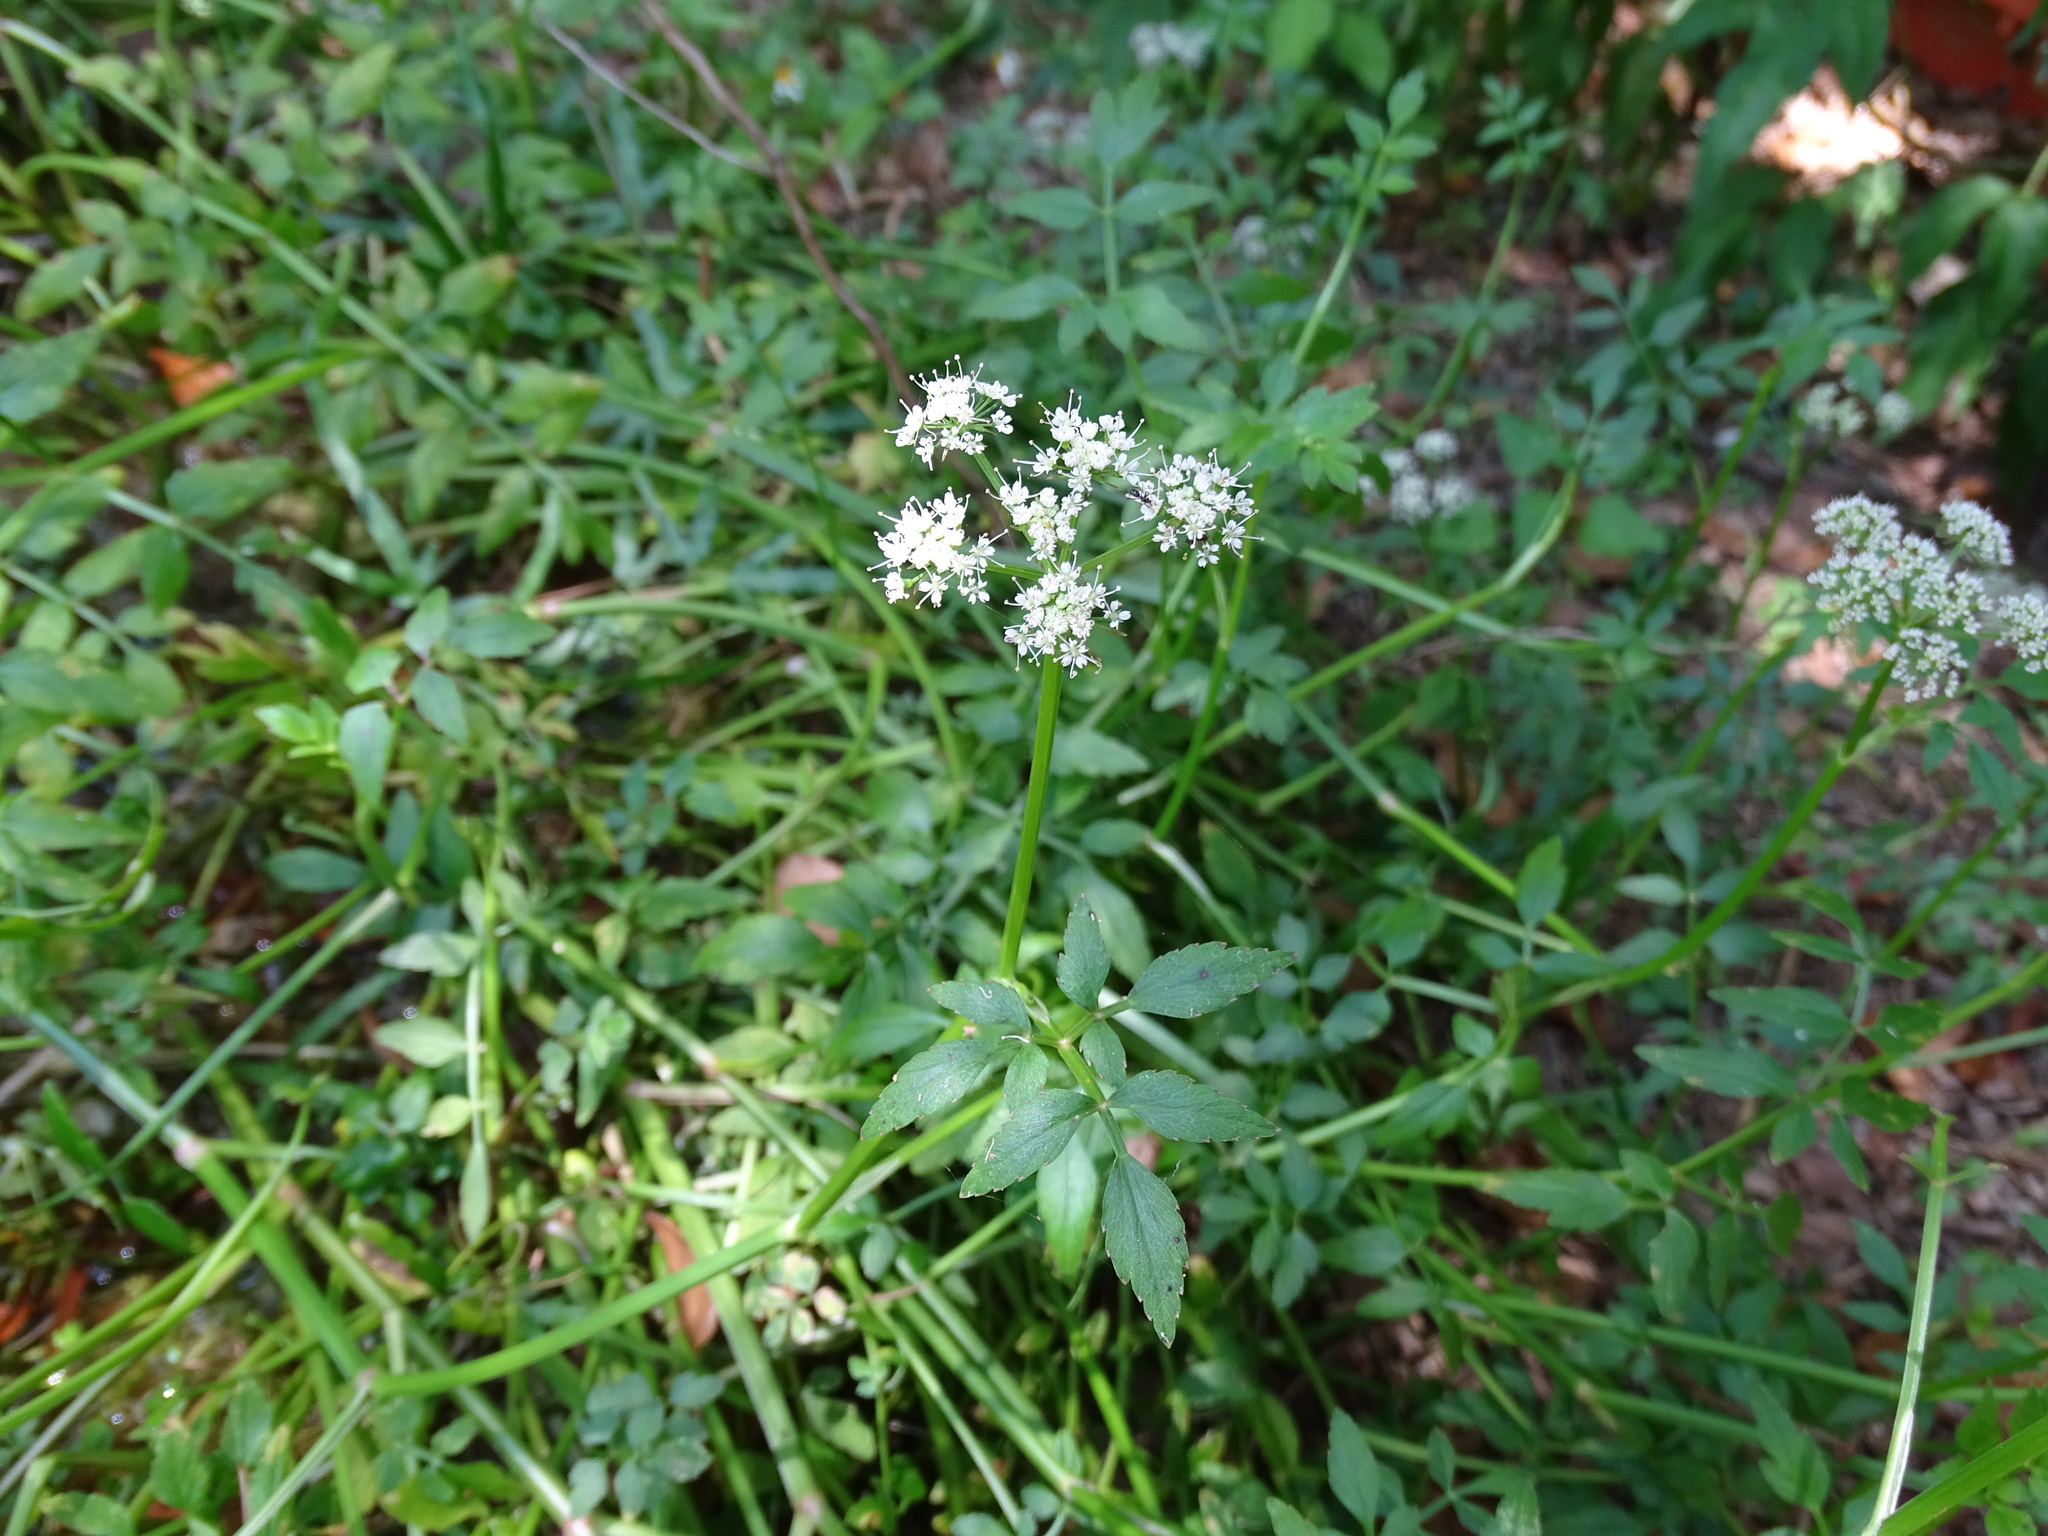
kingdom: Plantae
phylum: Tracheophyta
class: Magnoliopsida
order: Apiales
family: Apiaceae
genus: Oenanthe
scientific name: Oenanthe javanica
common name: Java water-dropwort
